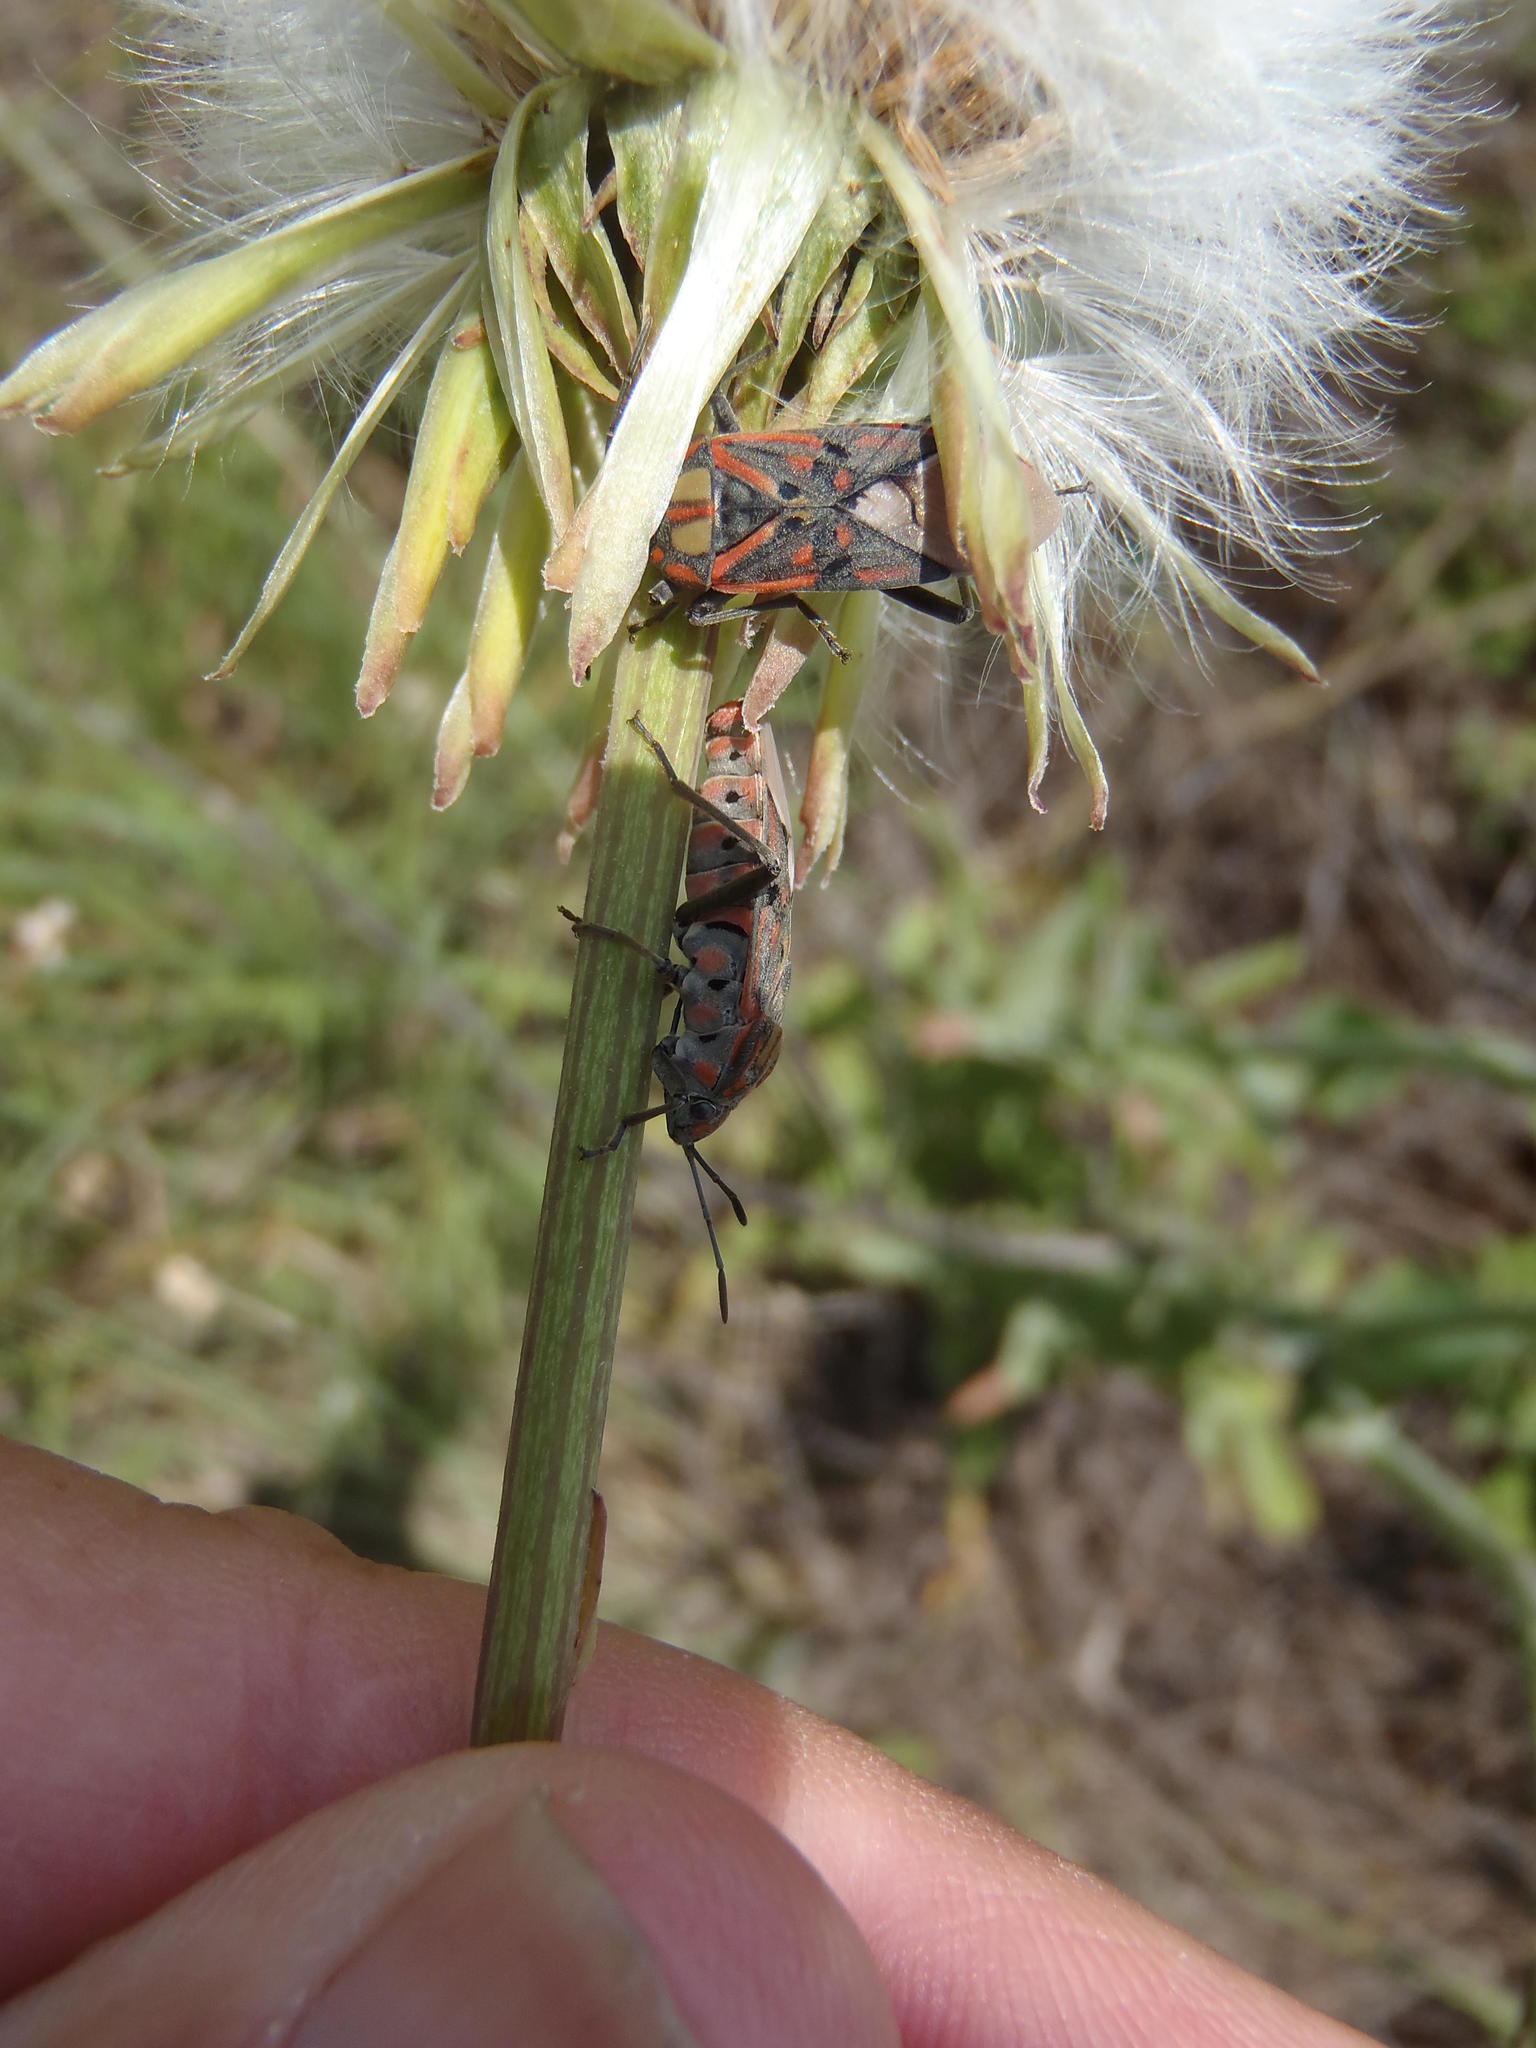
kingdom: Animalia
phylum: Arthropoda
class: Insecta
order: Hemiptera
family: Lygaeidae
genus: Spilostethus
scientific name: Spilostethus pandurus
